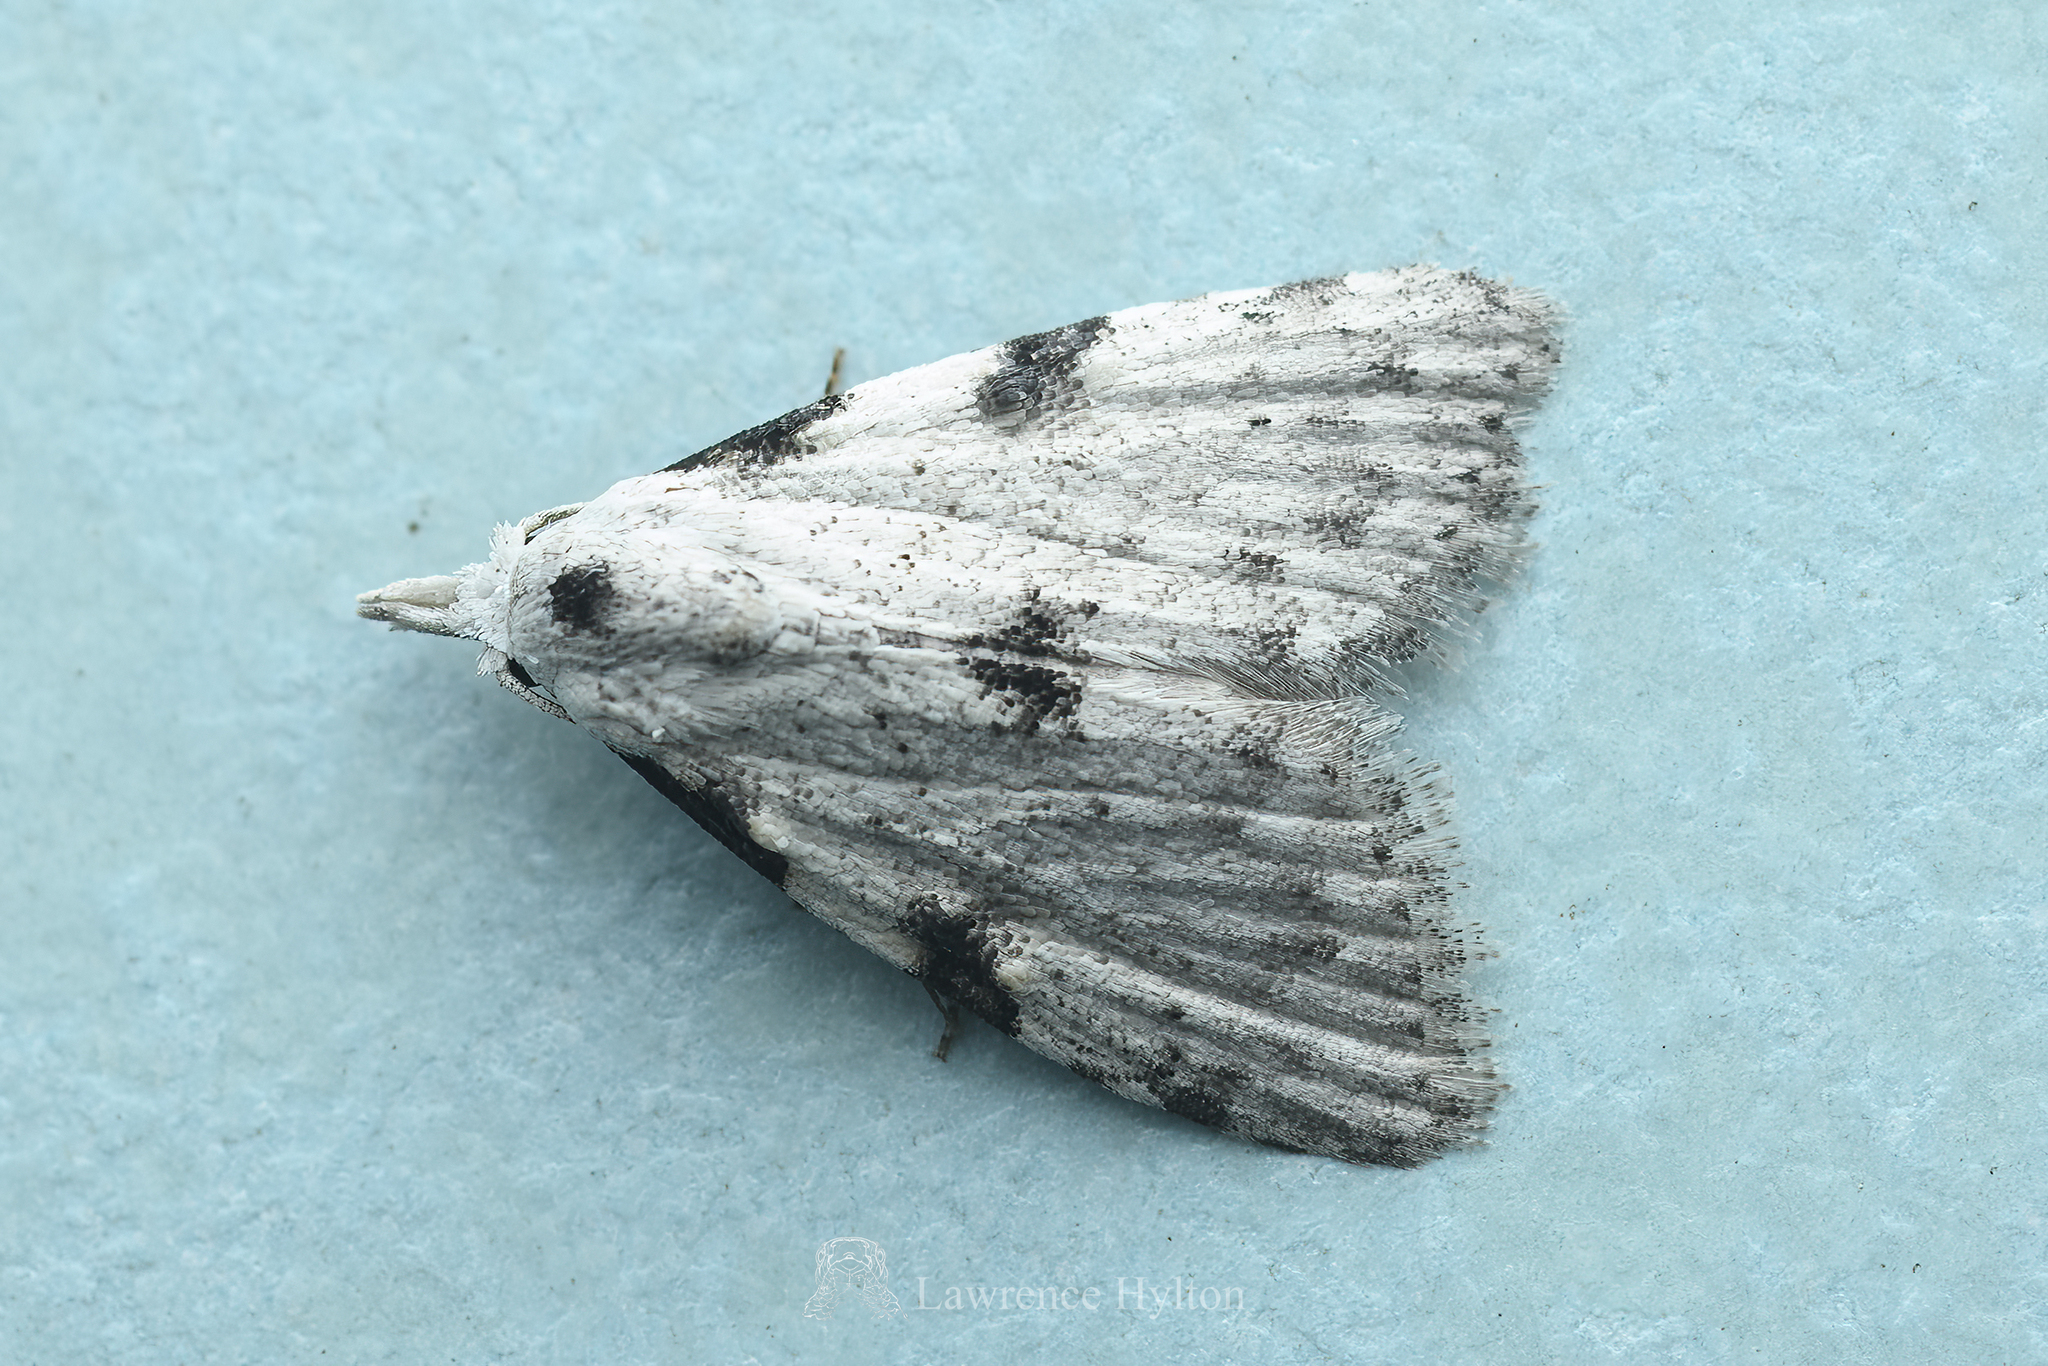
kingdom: Animalia
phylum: Arthropoda
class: Insecta
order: Lepidoptera
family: Nolidae
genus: Manoba
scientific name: Manoba tristicta
